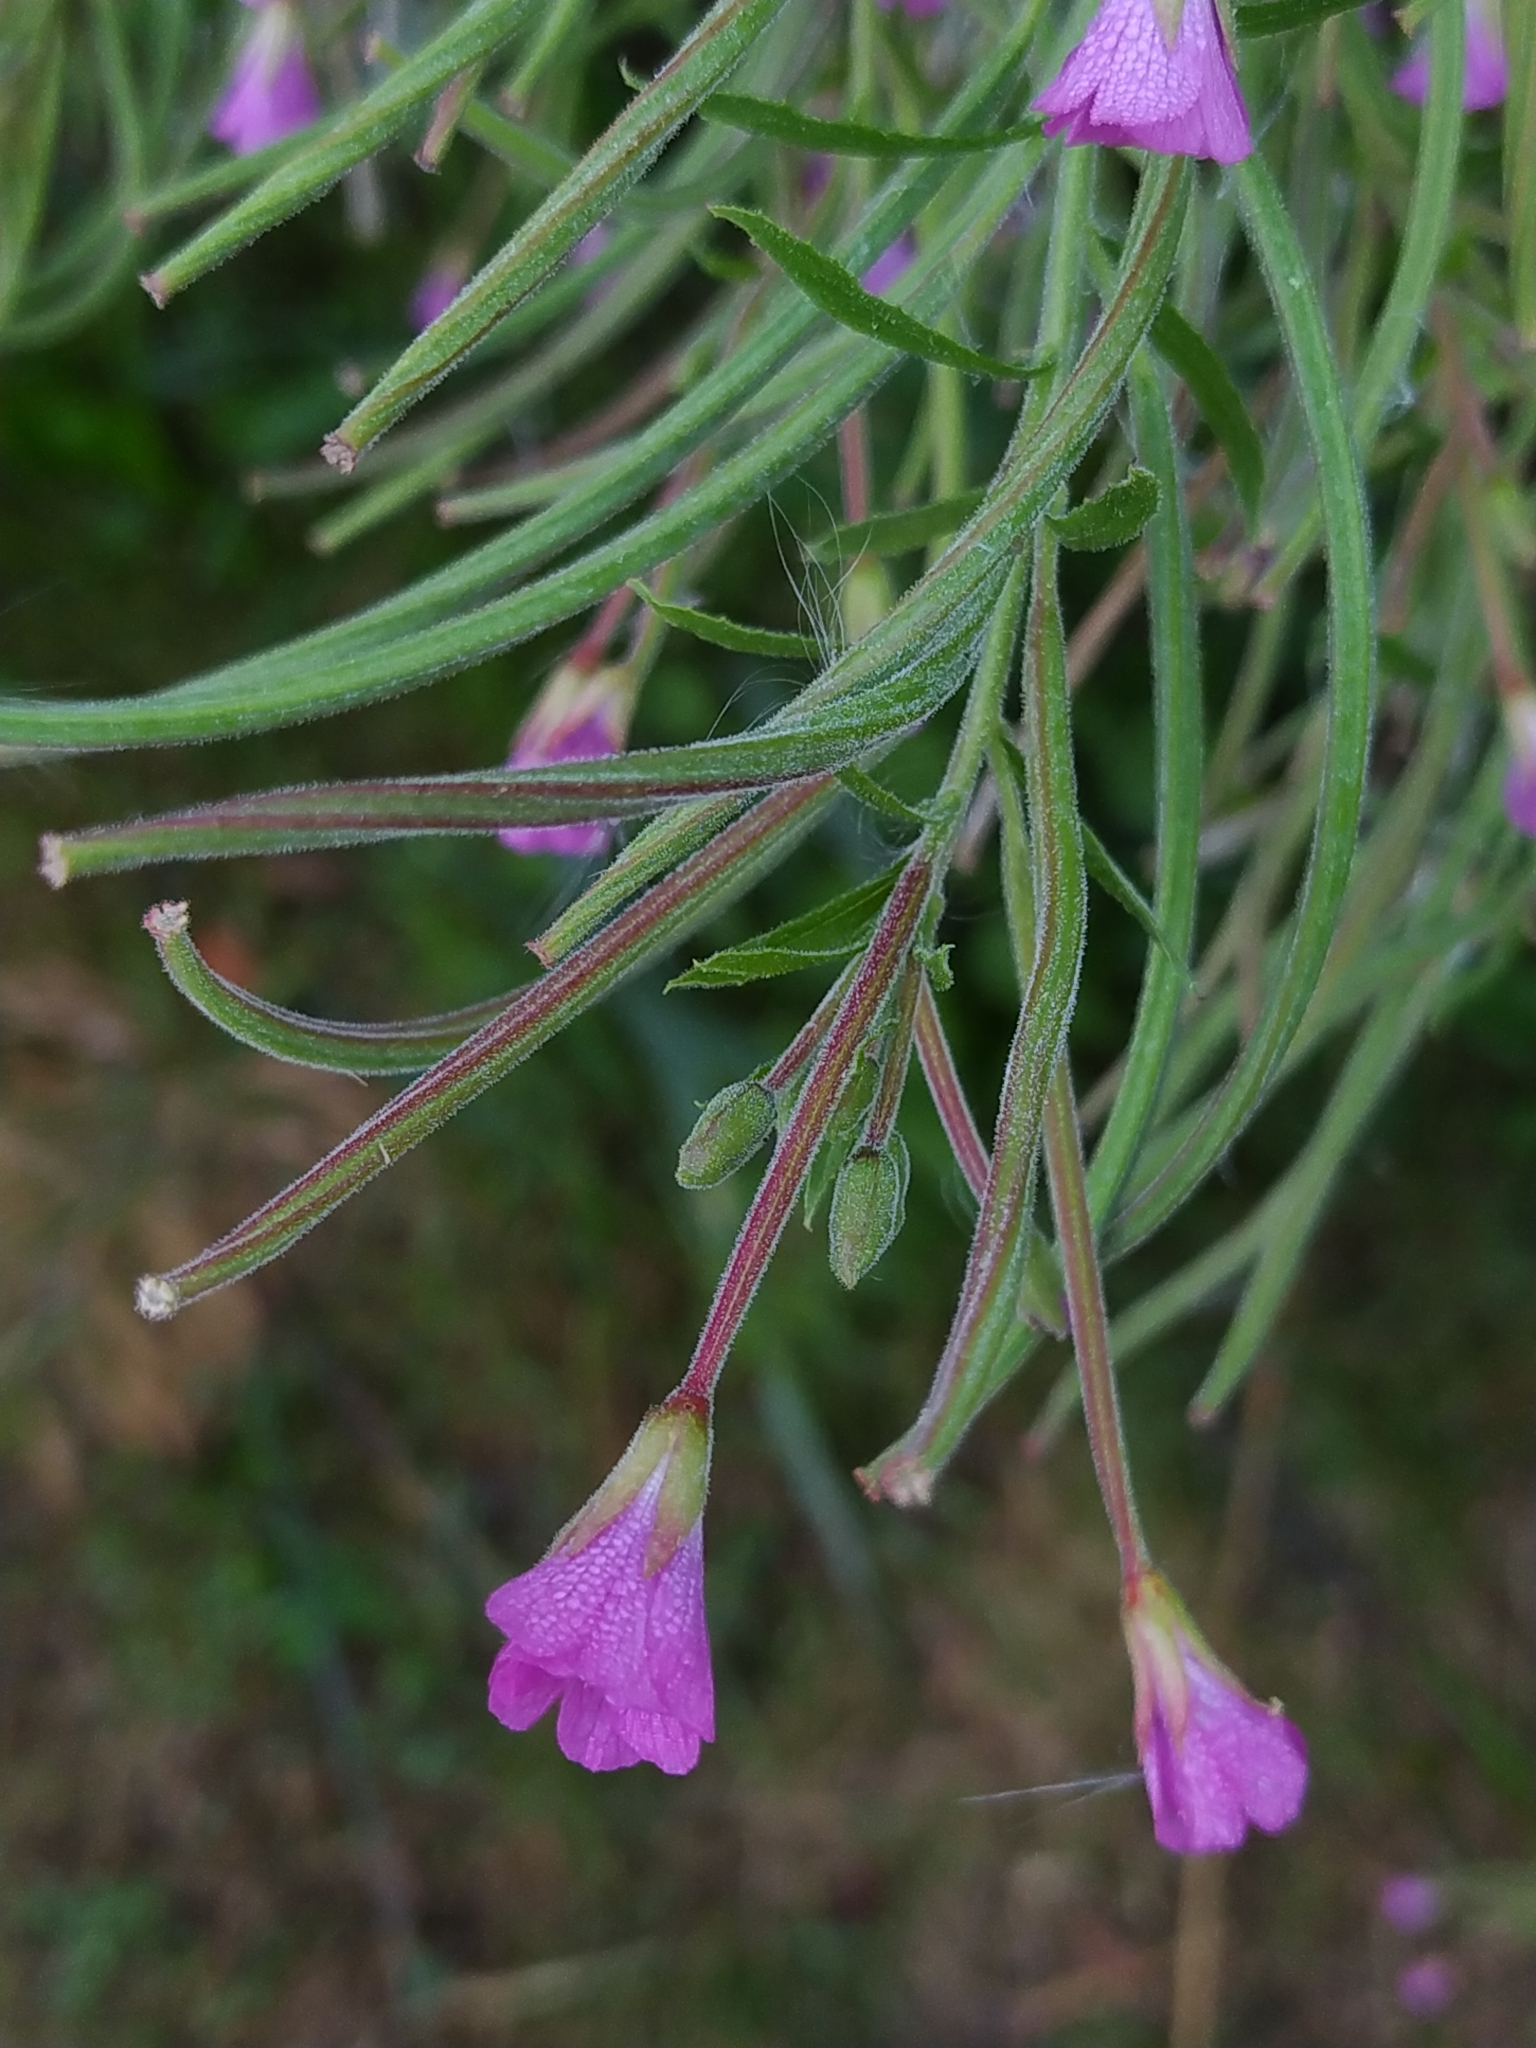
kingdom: Plantae
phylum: Tracheophyta
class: Magnoliopsida
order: Myrtales
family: Onagraceae
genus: Epilobium
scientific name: Epilobium hirsutum
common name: Great willowherb
